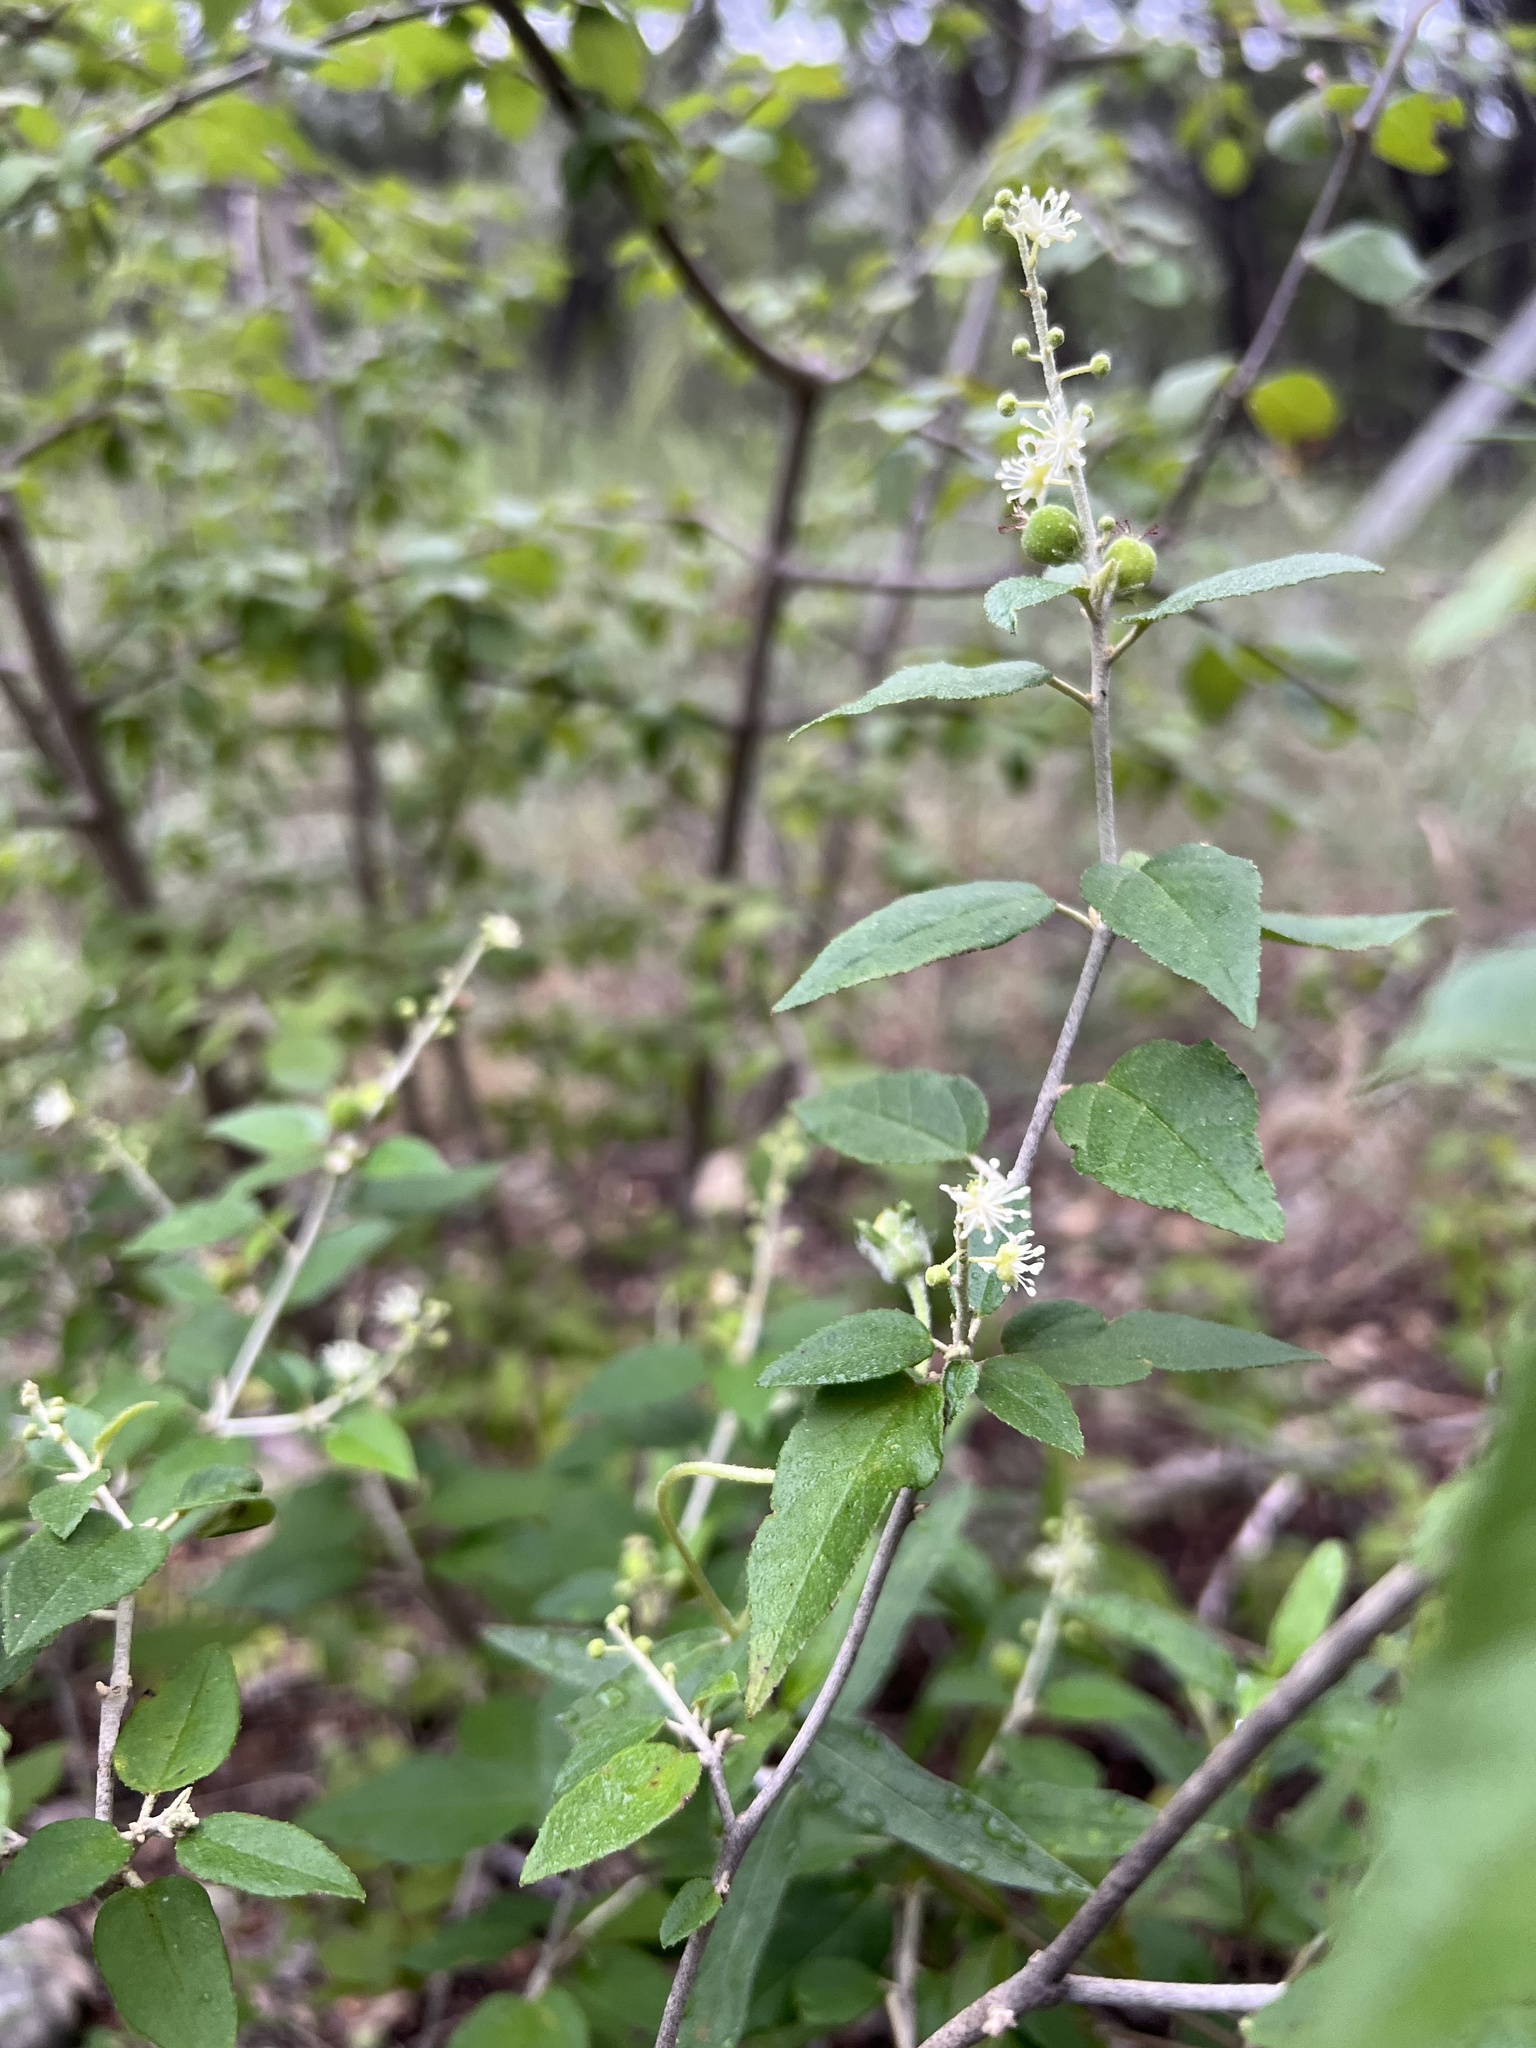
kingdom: Plantae
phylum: Tracheophyta
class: Magnoliopsida
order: Malpighiales
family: Euphorbiaceae
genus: Croton
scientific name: Croton fruticulosus
